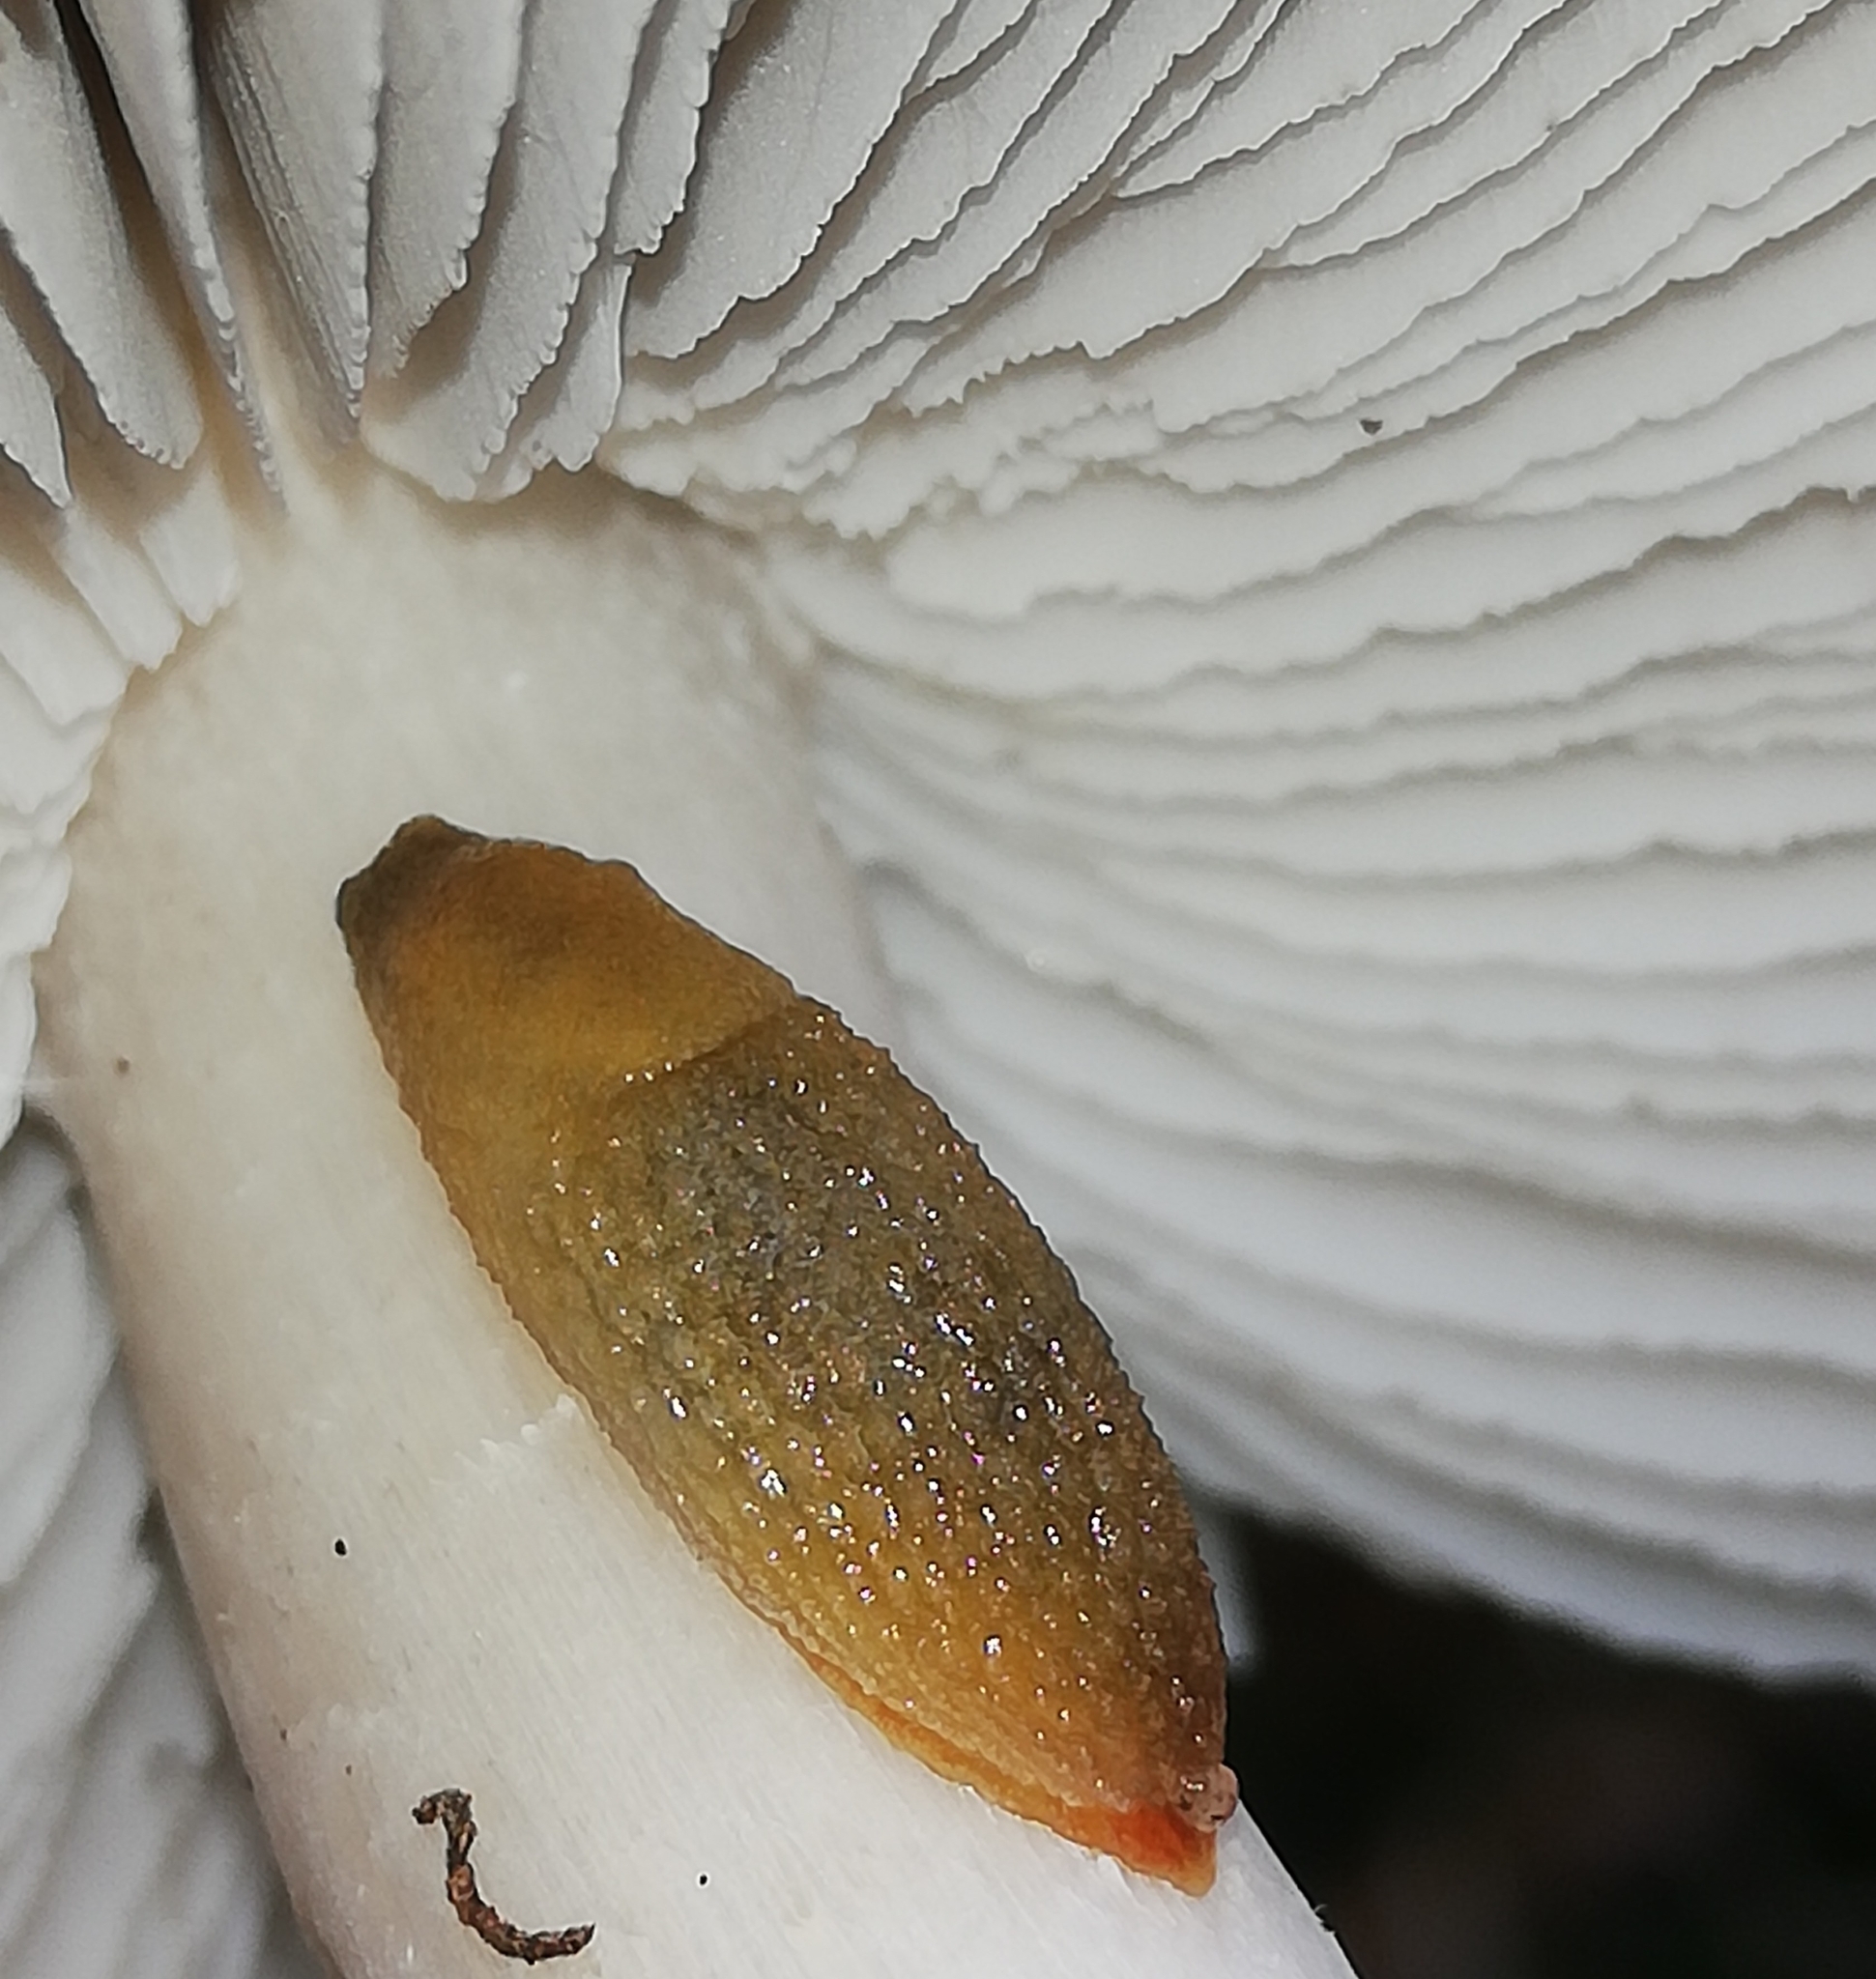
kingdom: Animalia
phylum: Mollusca
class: Gastropoda
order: Stylommatophora
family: Arionidae
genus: Arion
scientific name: Arion intermedius
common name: Hedgehog slug
